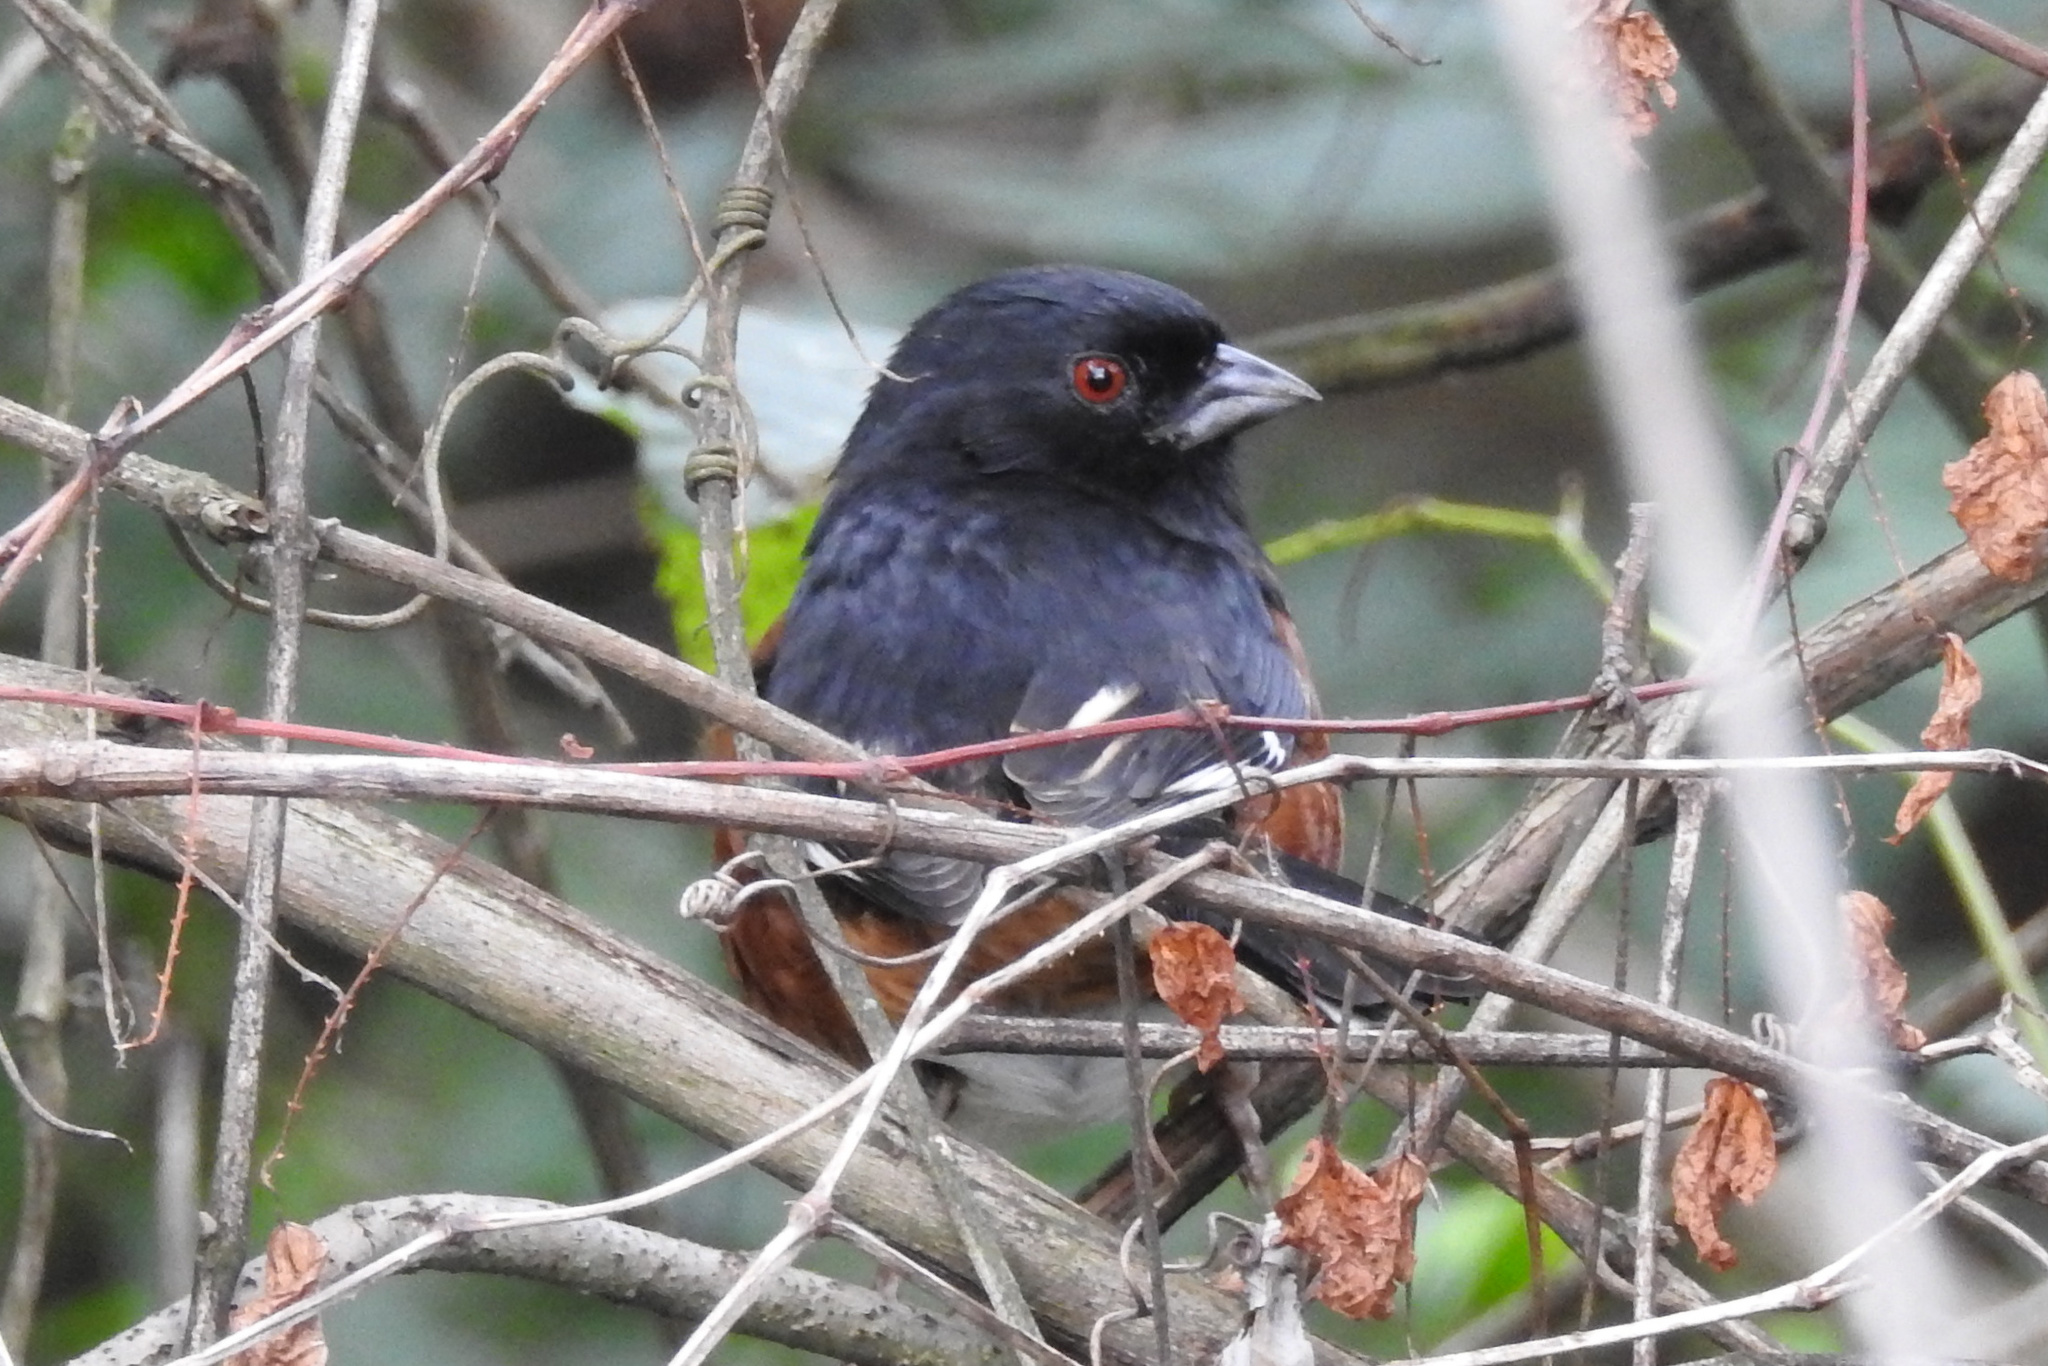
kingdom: Animalia
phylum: Chordata
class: Aves
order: Passeriformes
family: Passerellidae
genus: Pipilo
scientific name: Pipilo erythrophthalmus
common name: Eastern towhee
